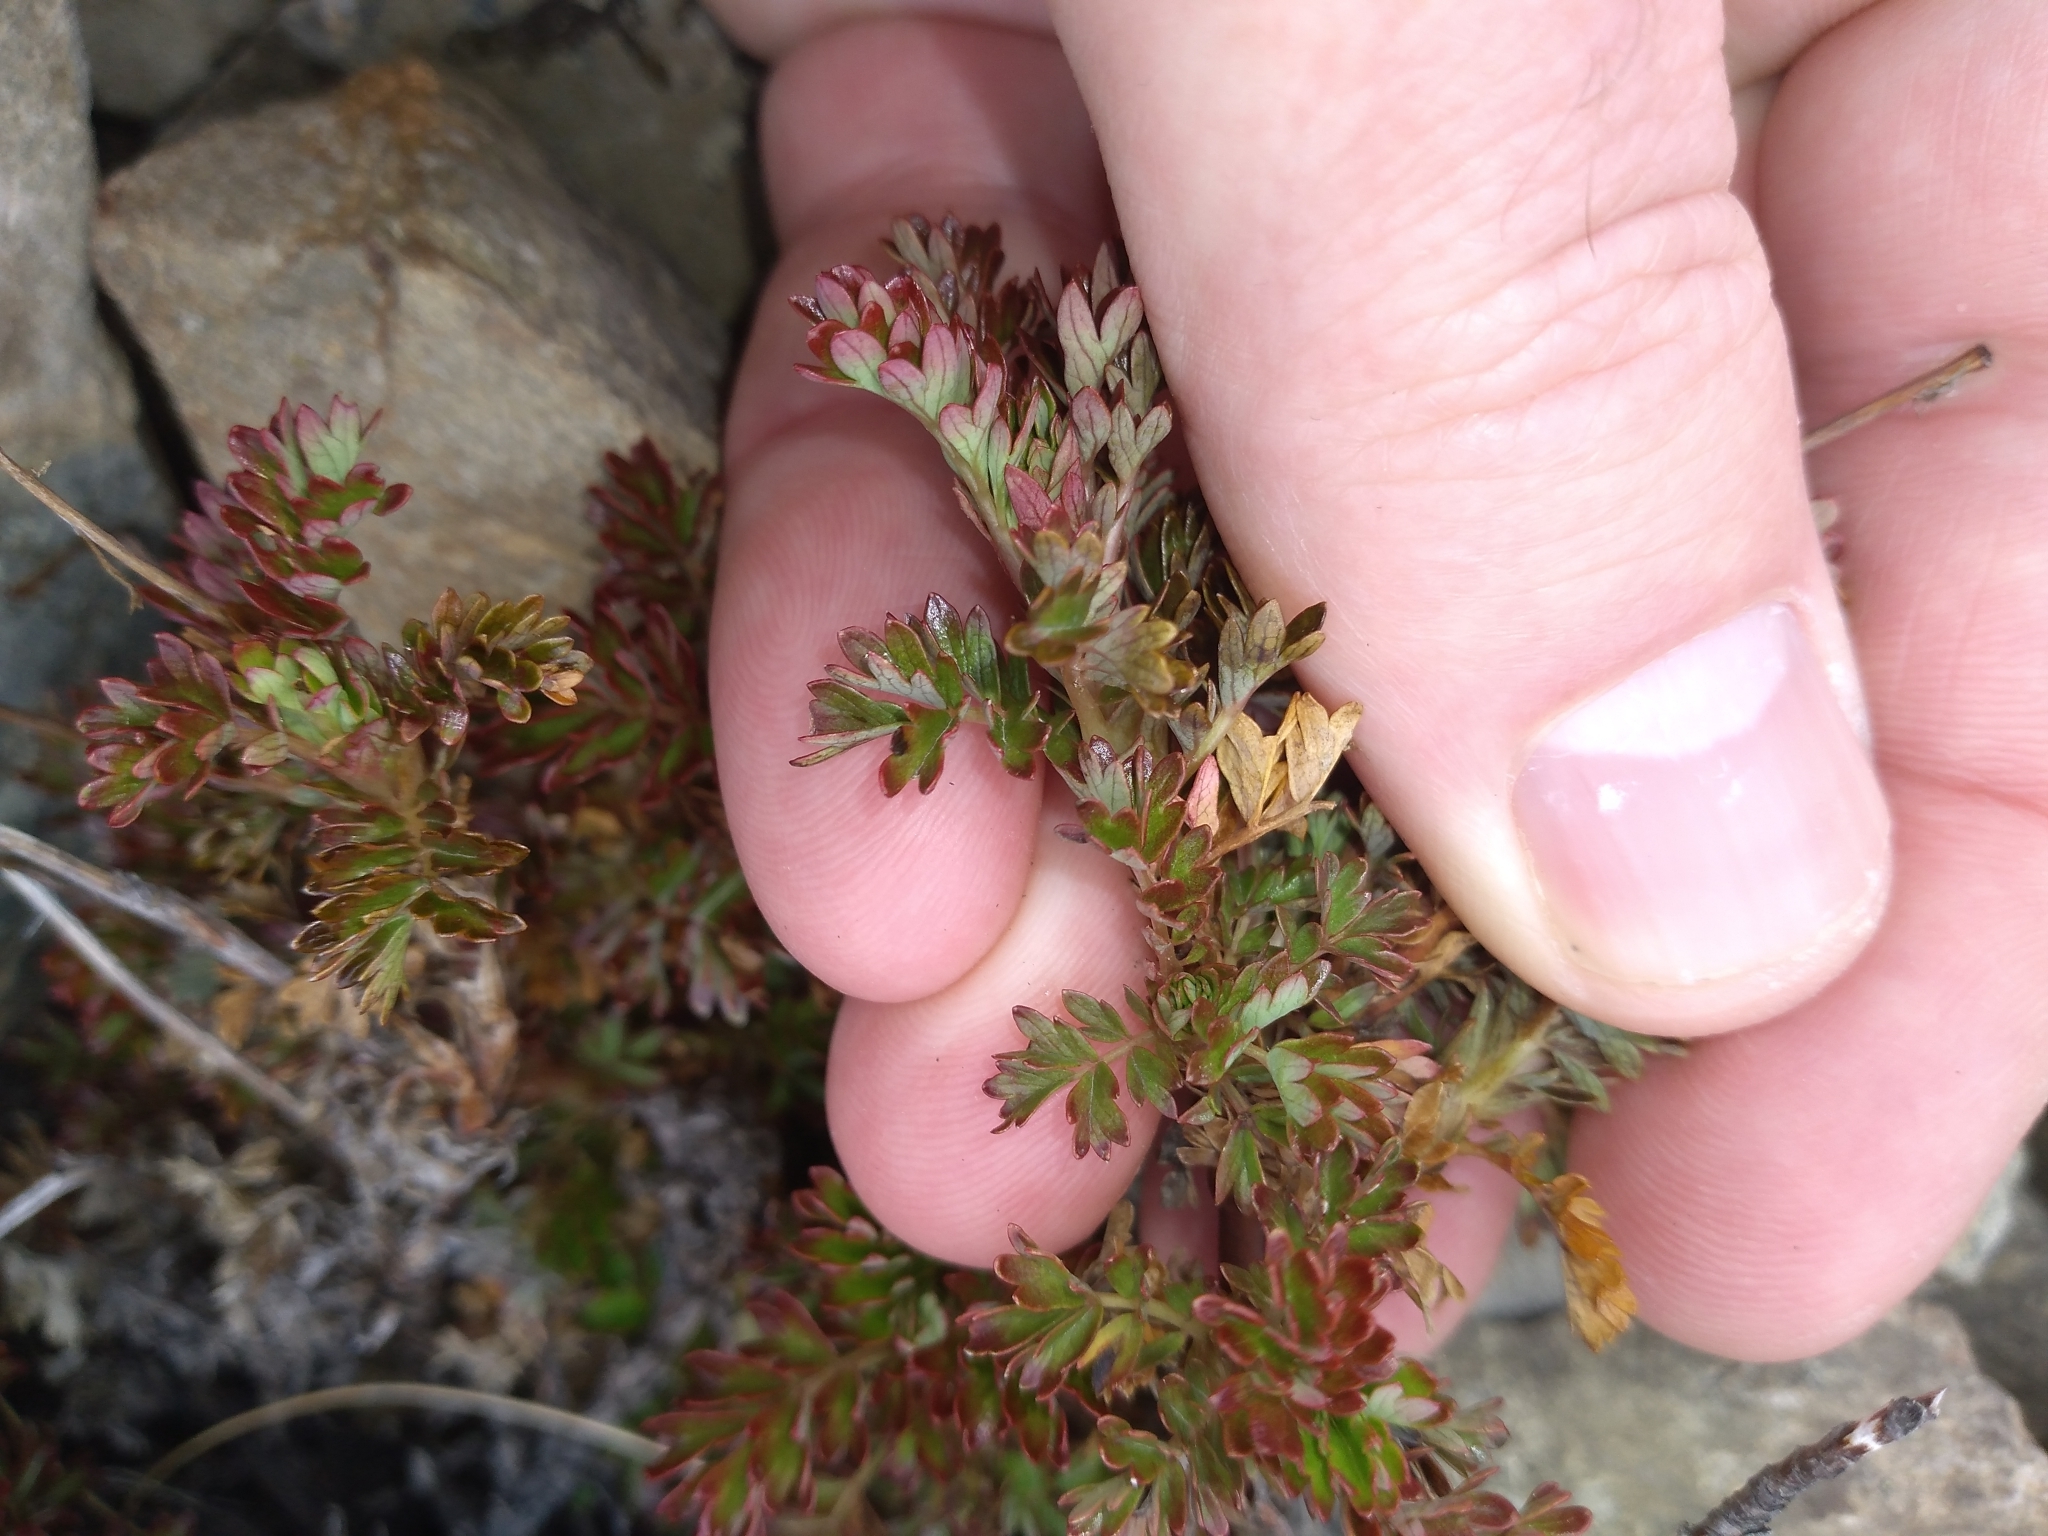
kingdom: Plantae
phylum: Tracheophyta
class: Magnoliopsida
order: Rosales
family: Rosaceae
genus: Acaena
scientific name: Acaena glabra
